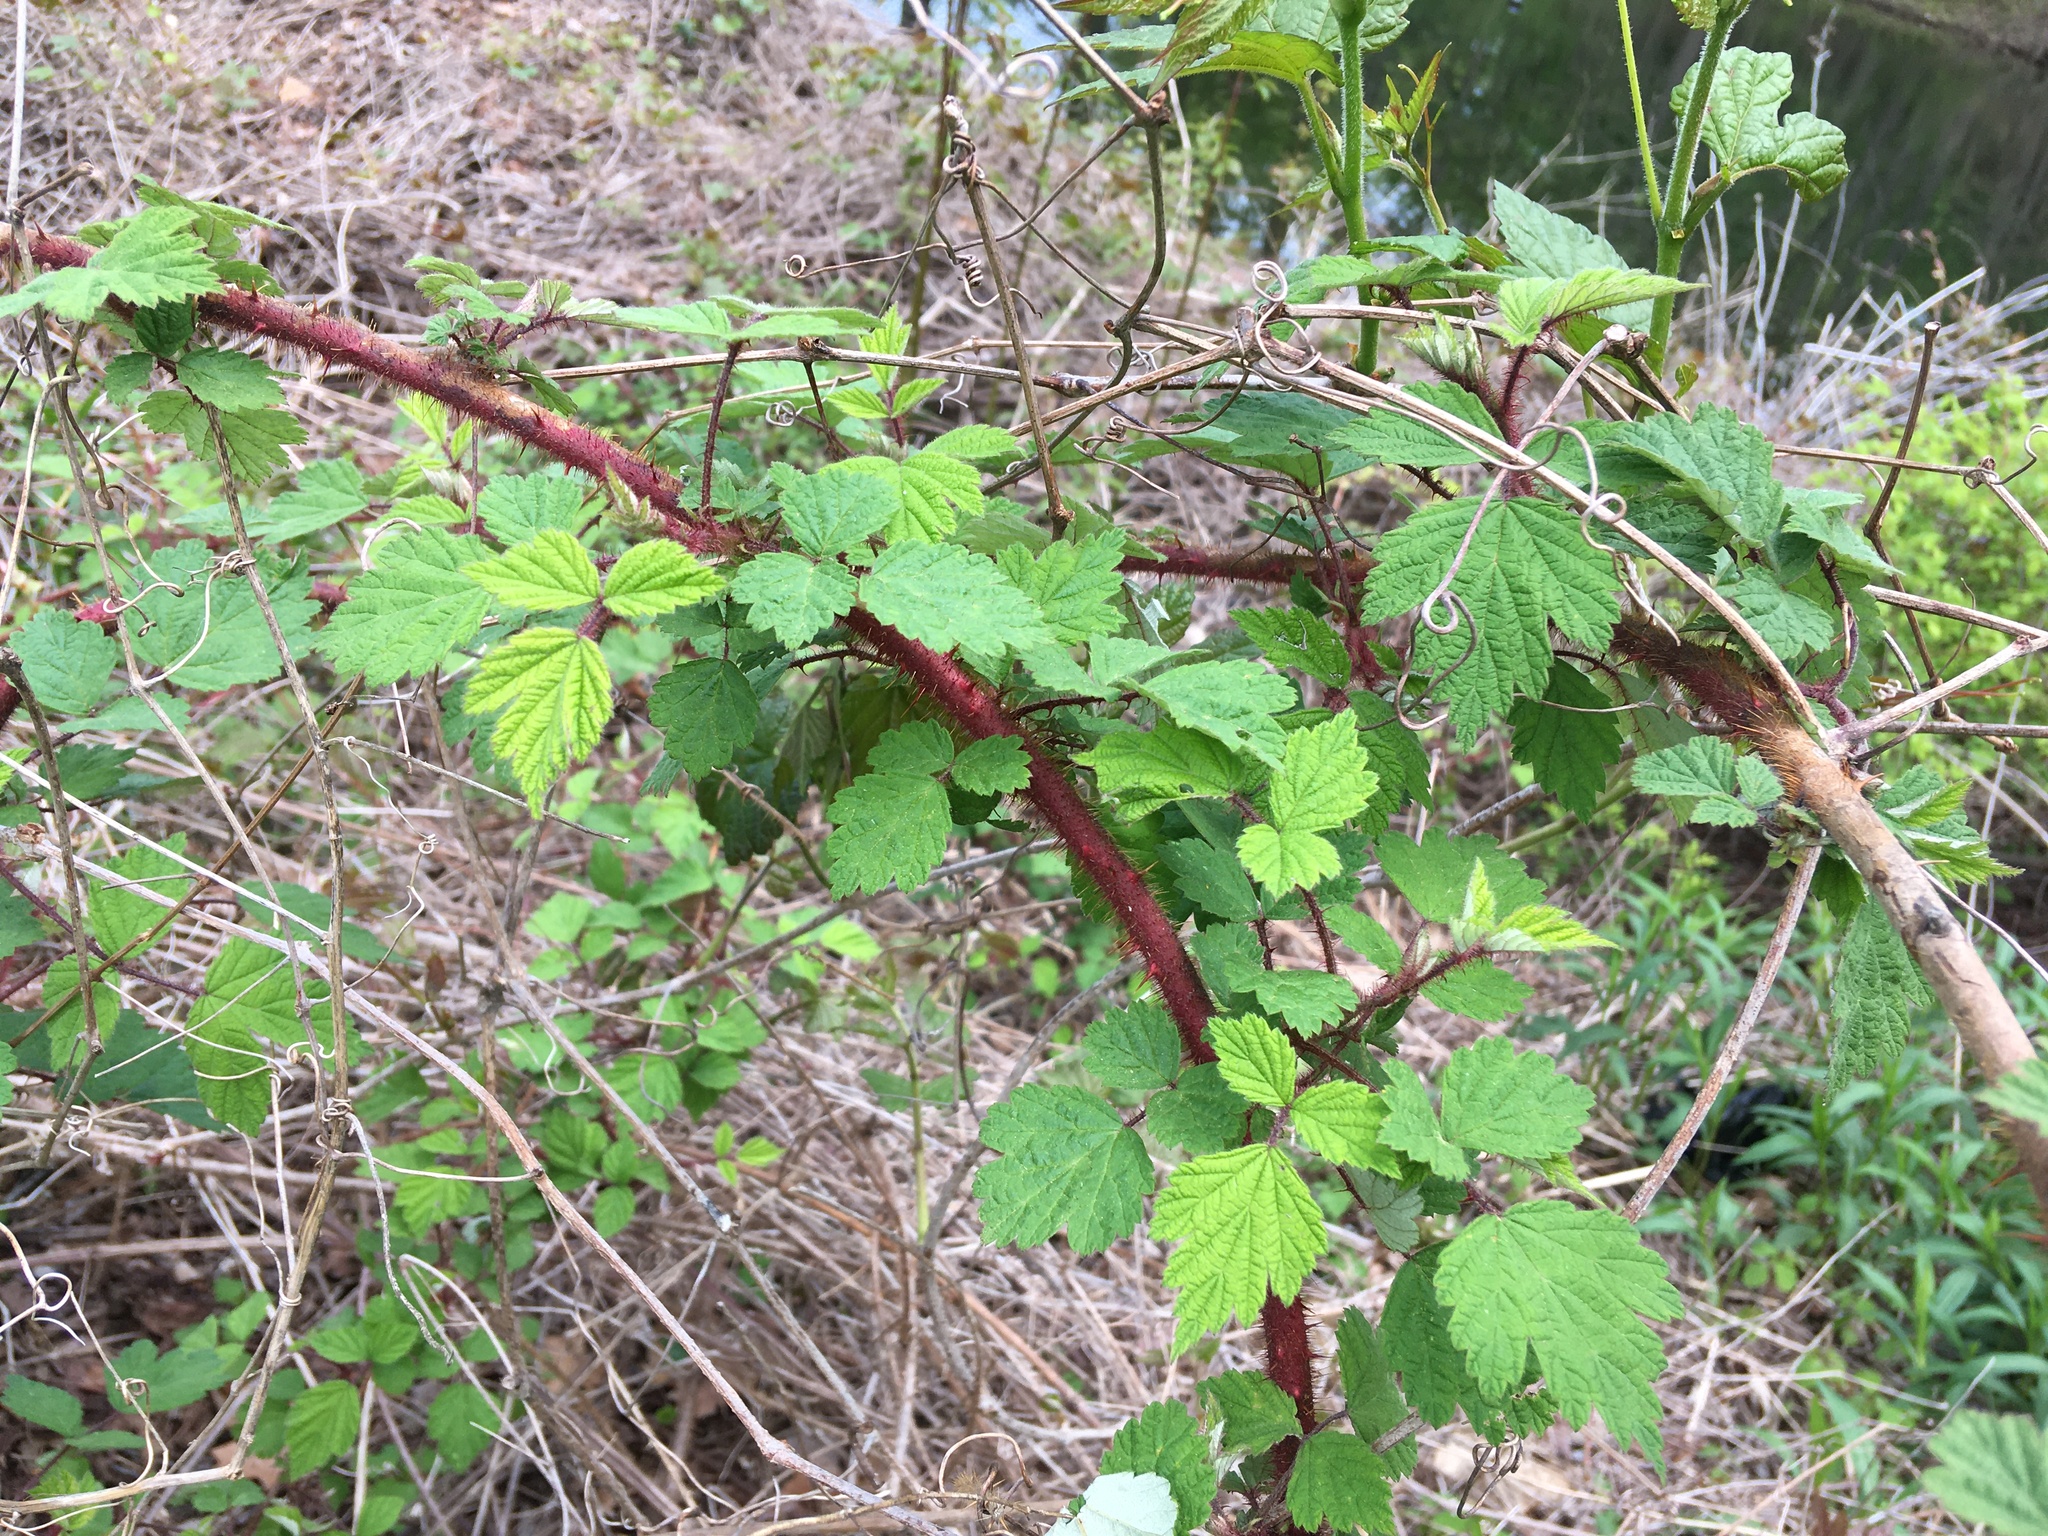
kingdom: Plantae
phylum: Tracheophyta
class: Magnoliopsida
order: Rosales
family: Rosaceae
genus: Rubus
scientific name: Rubus phoenicolasius
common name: Japanese wineberry
